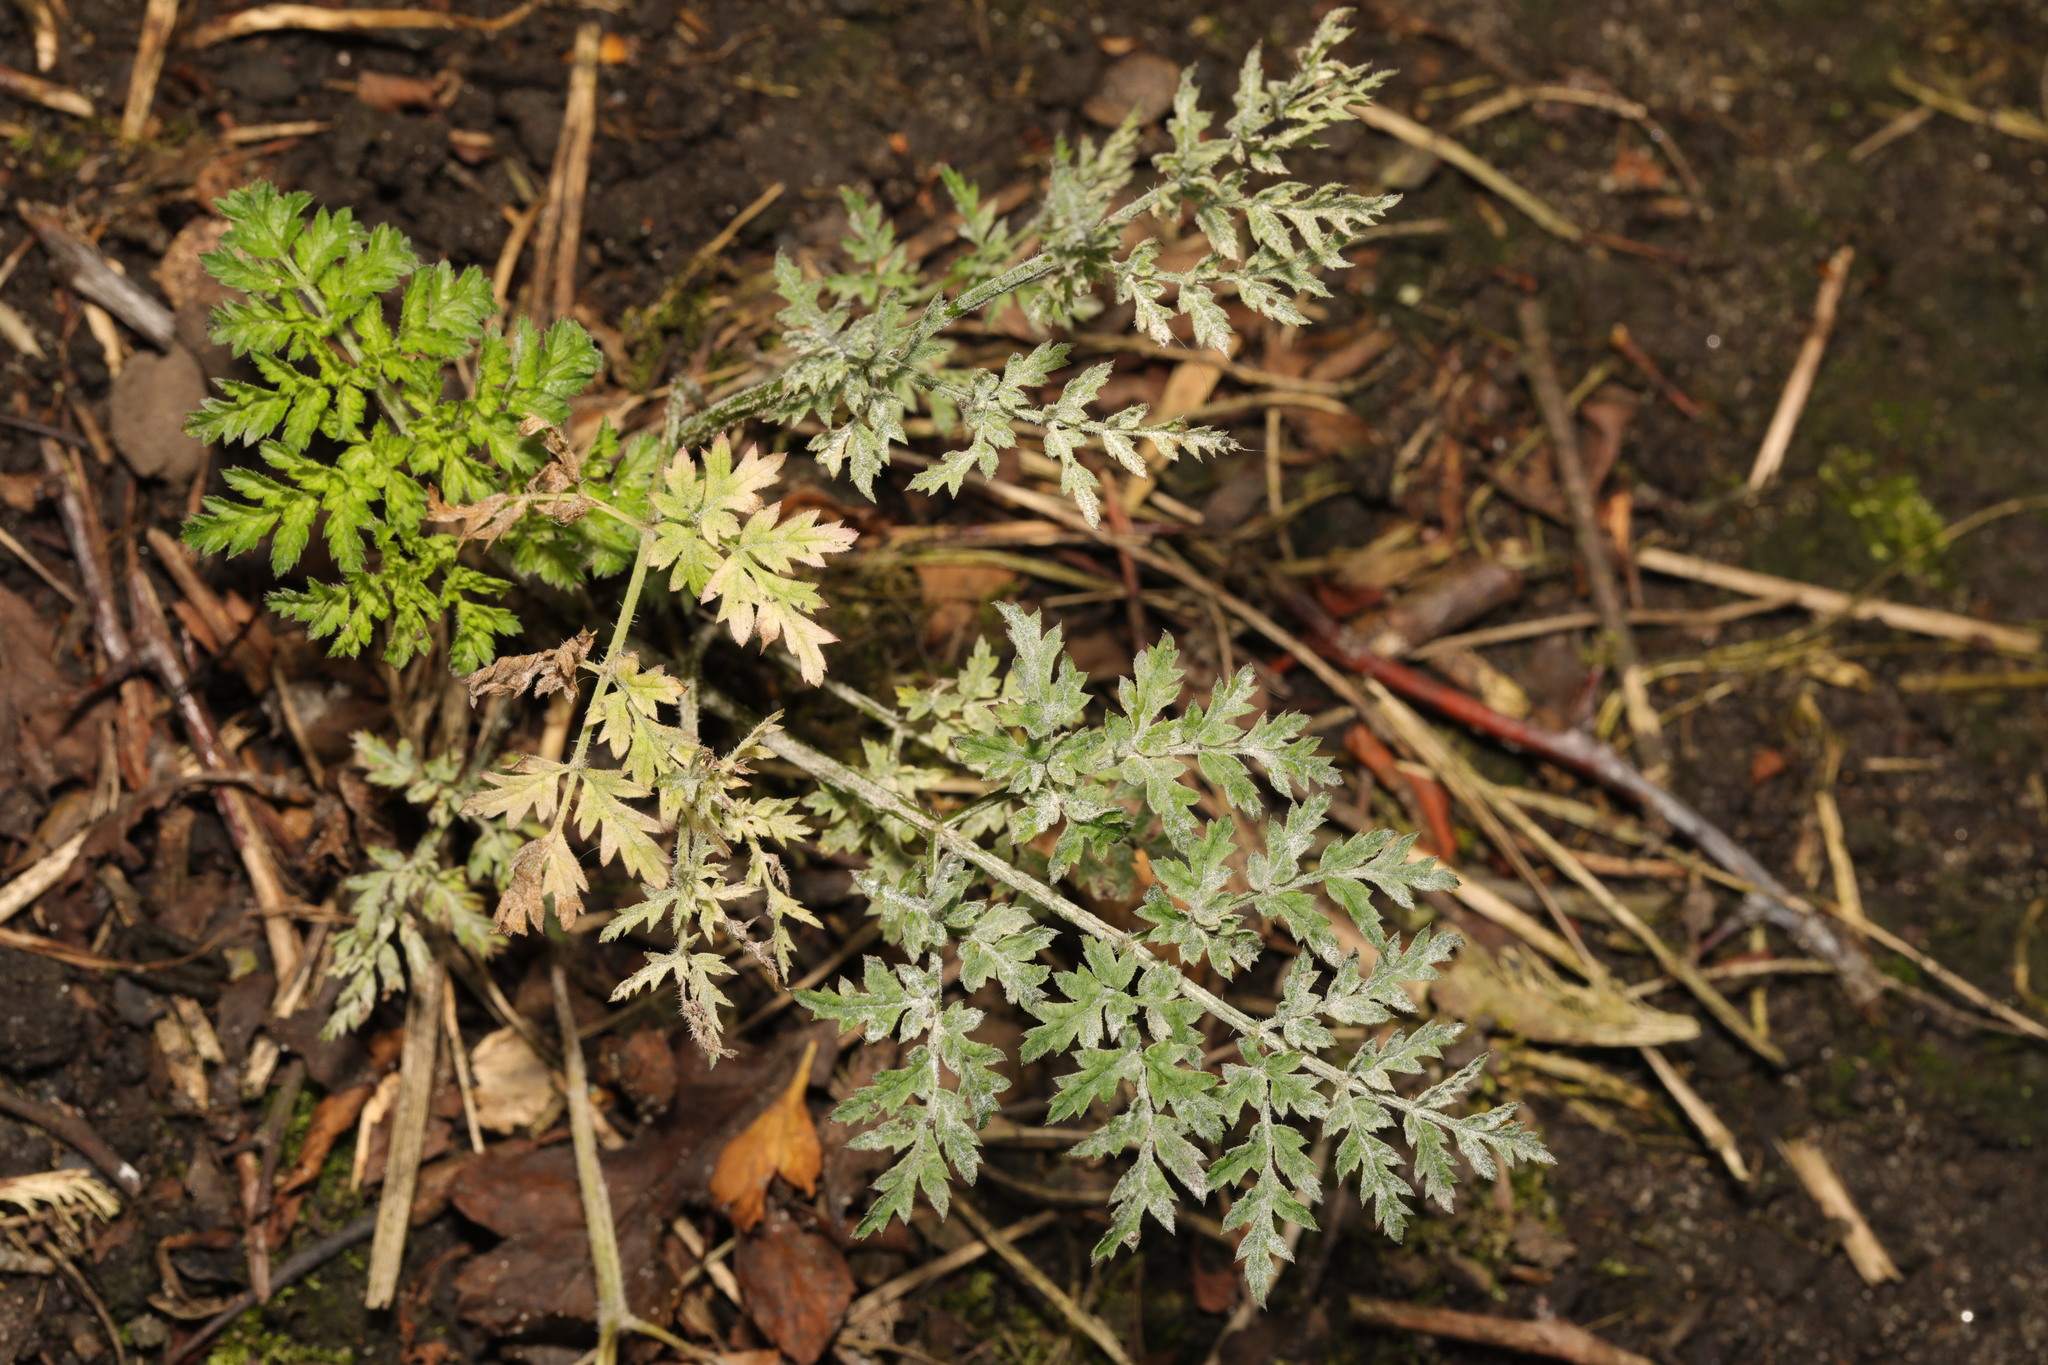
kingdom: Fungi
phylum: Ascomycota
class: Leotiomycetes
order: Helotiales
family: Erysiphaceae
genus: Erysiphe
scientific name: Erysiphe heraclei
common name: Umbellifer mildew
